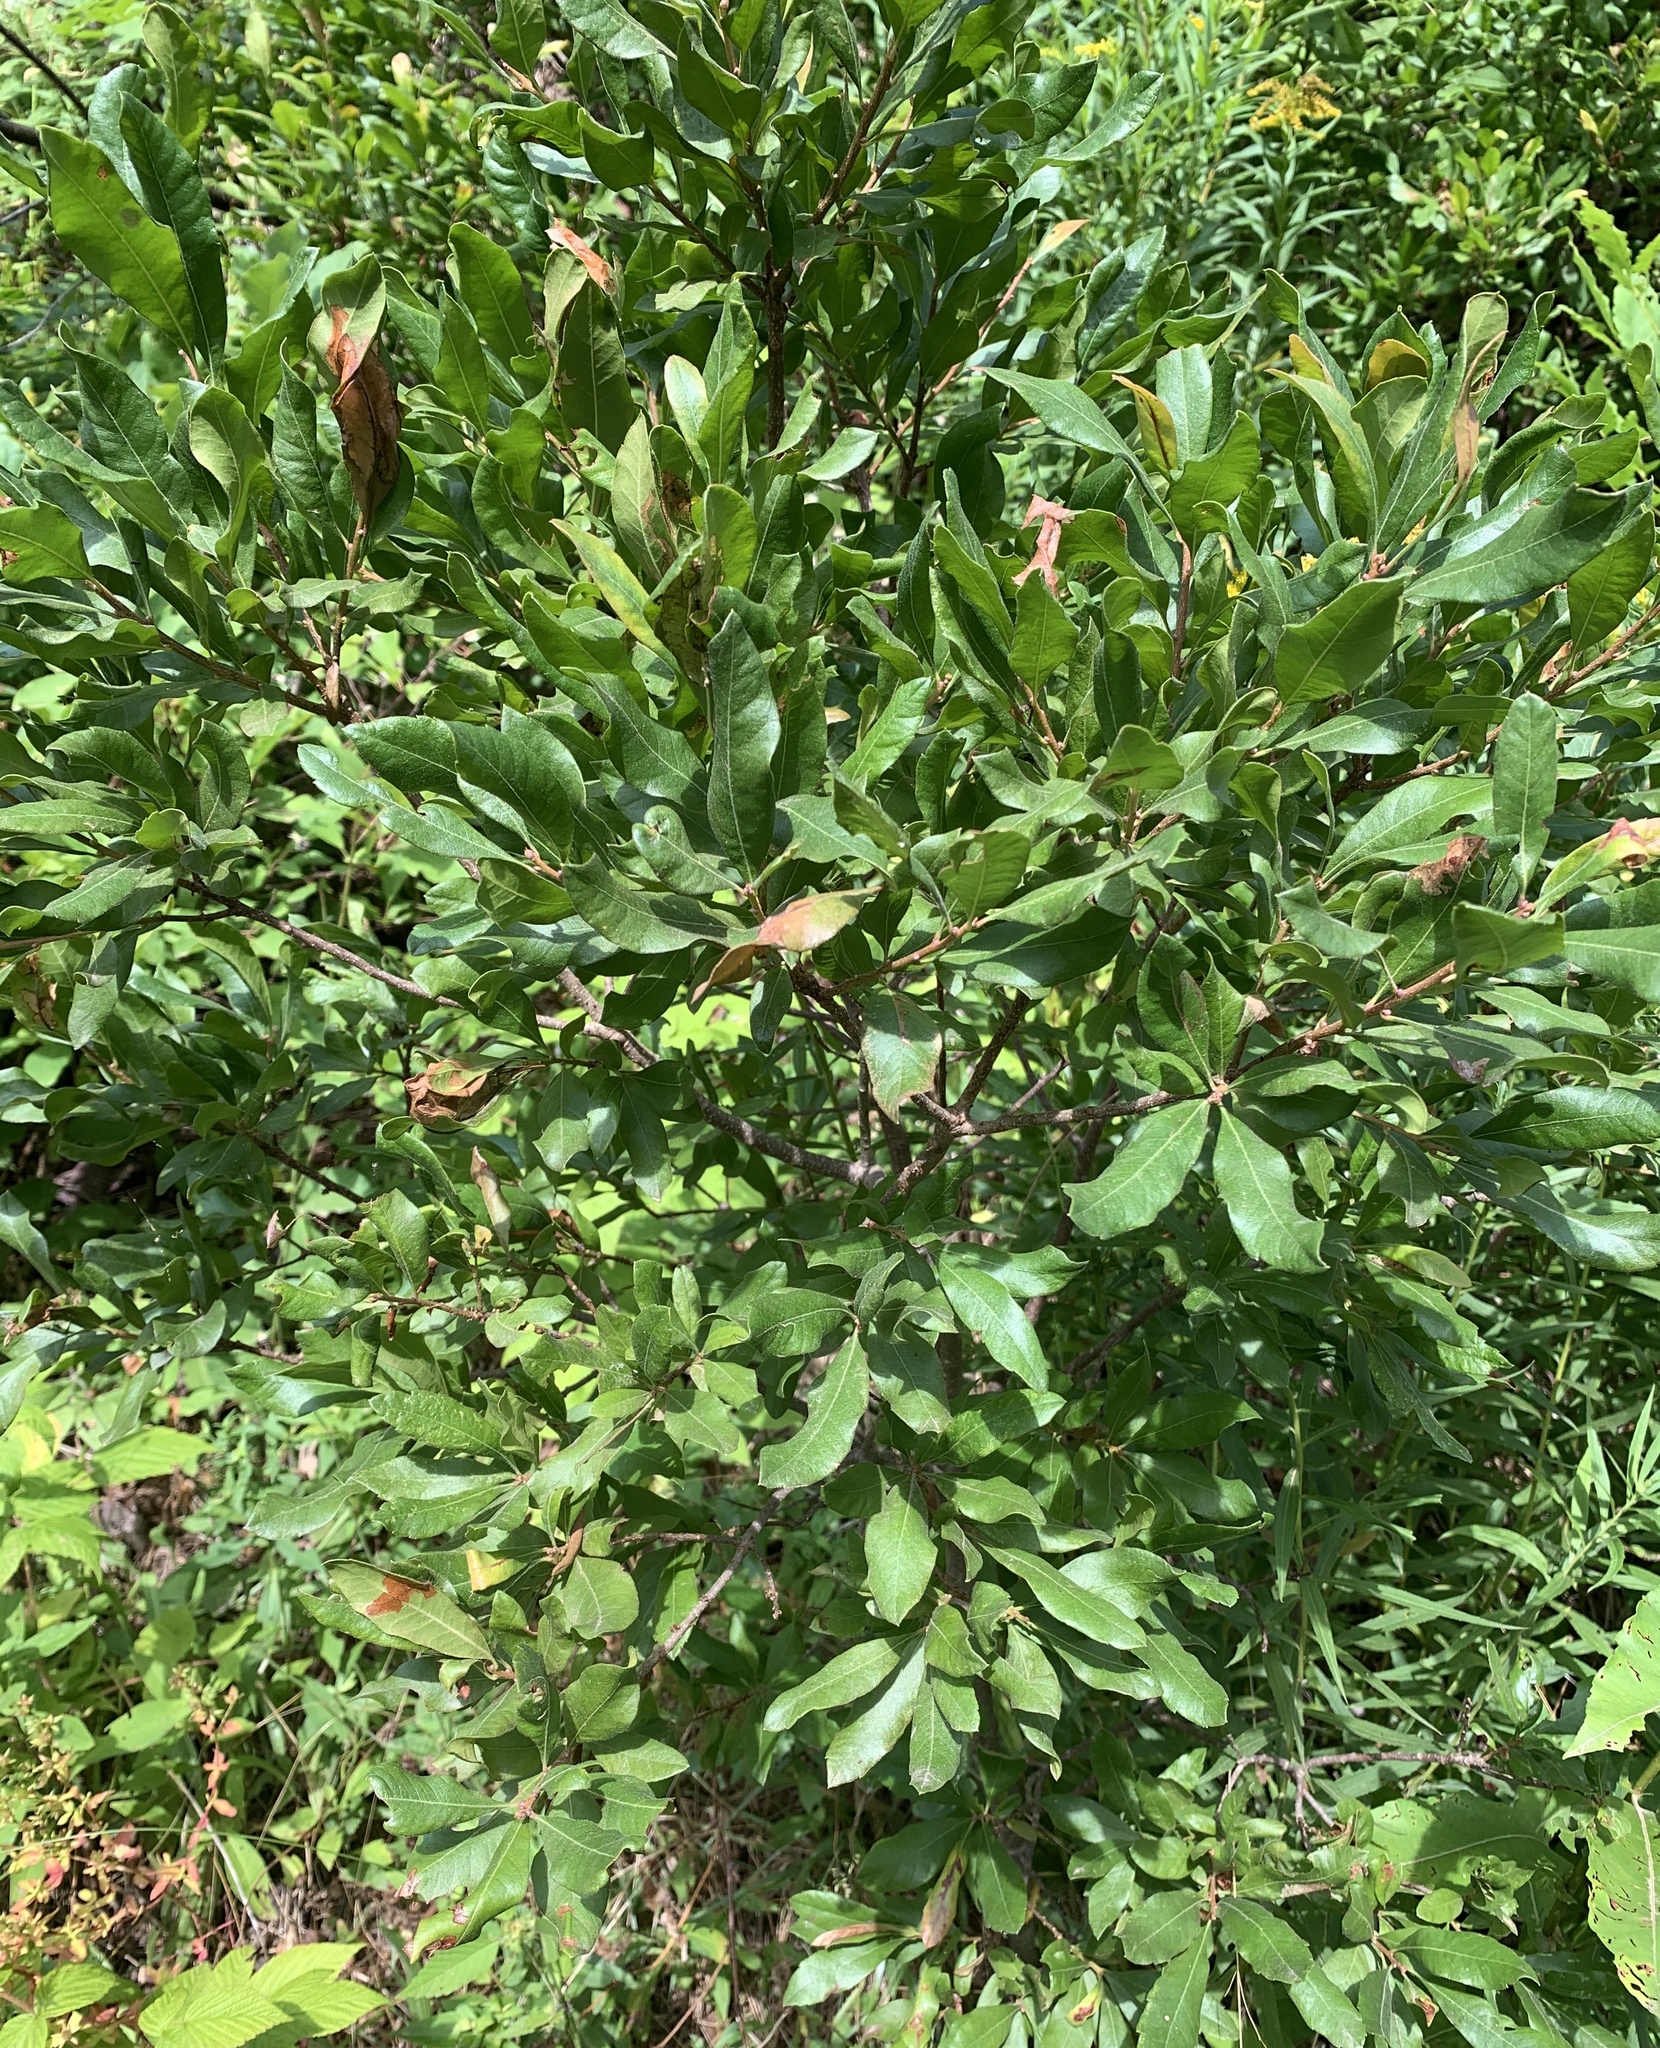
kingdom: Plantae
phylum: Tracheophyta
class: Magnoliopsida
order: Fagales
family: Myricaceae
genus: Morella
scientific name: Morella pensylvanica
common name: Northern bayberry
